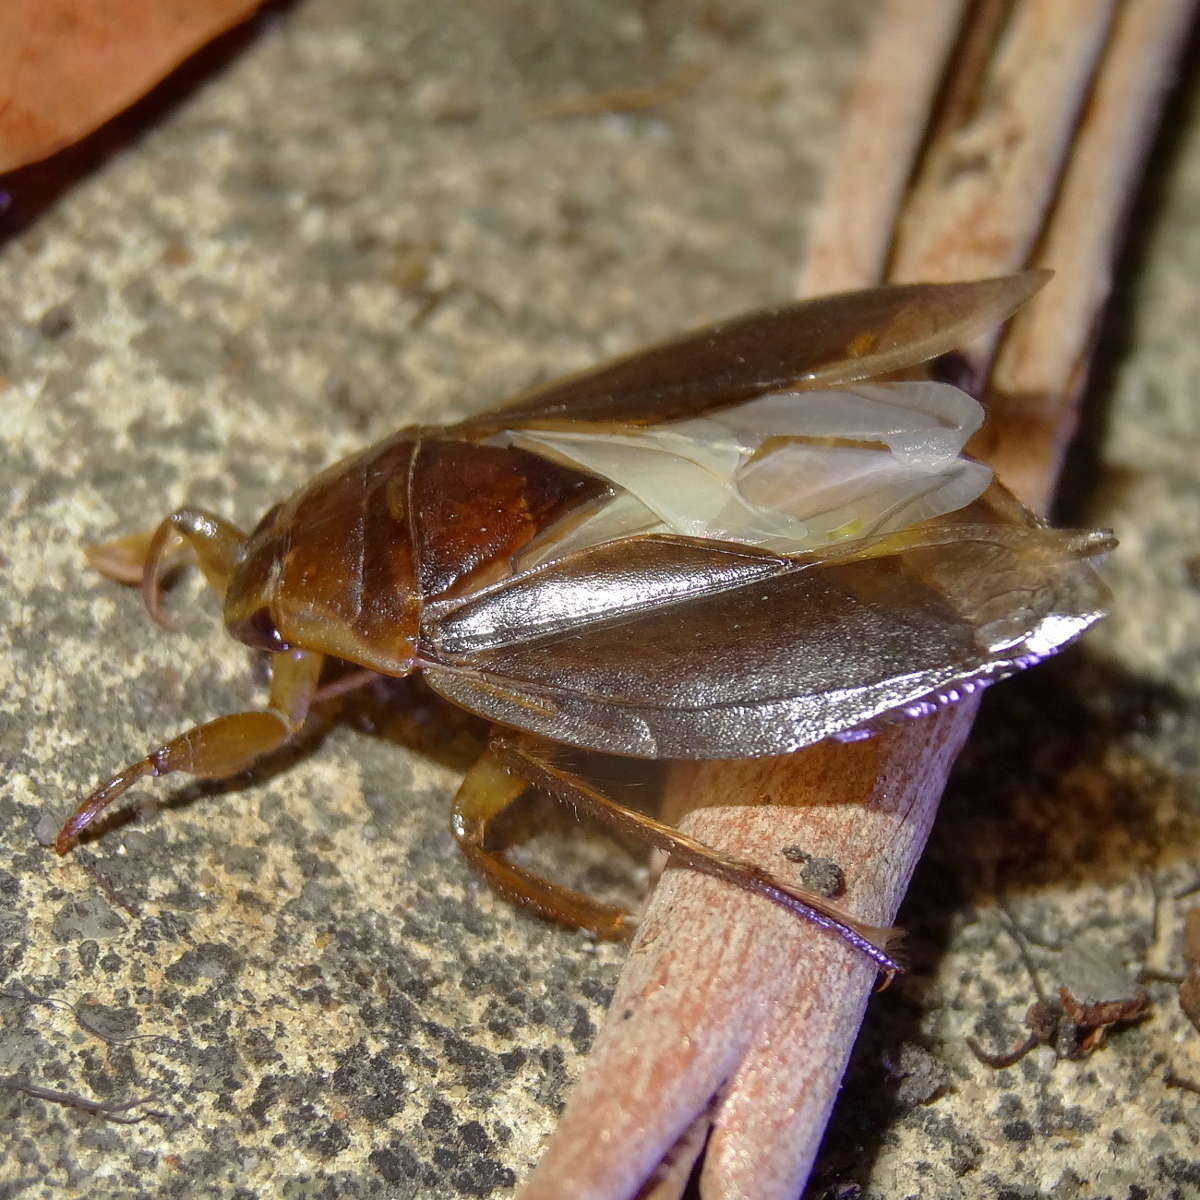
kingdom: Animalia
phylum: Arthropoda
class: Insecta
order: Hemiptera
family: Belostomatidae
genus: Diplonychus
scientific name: Diplonychus eques
